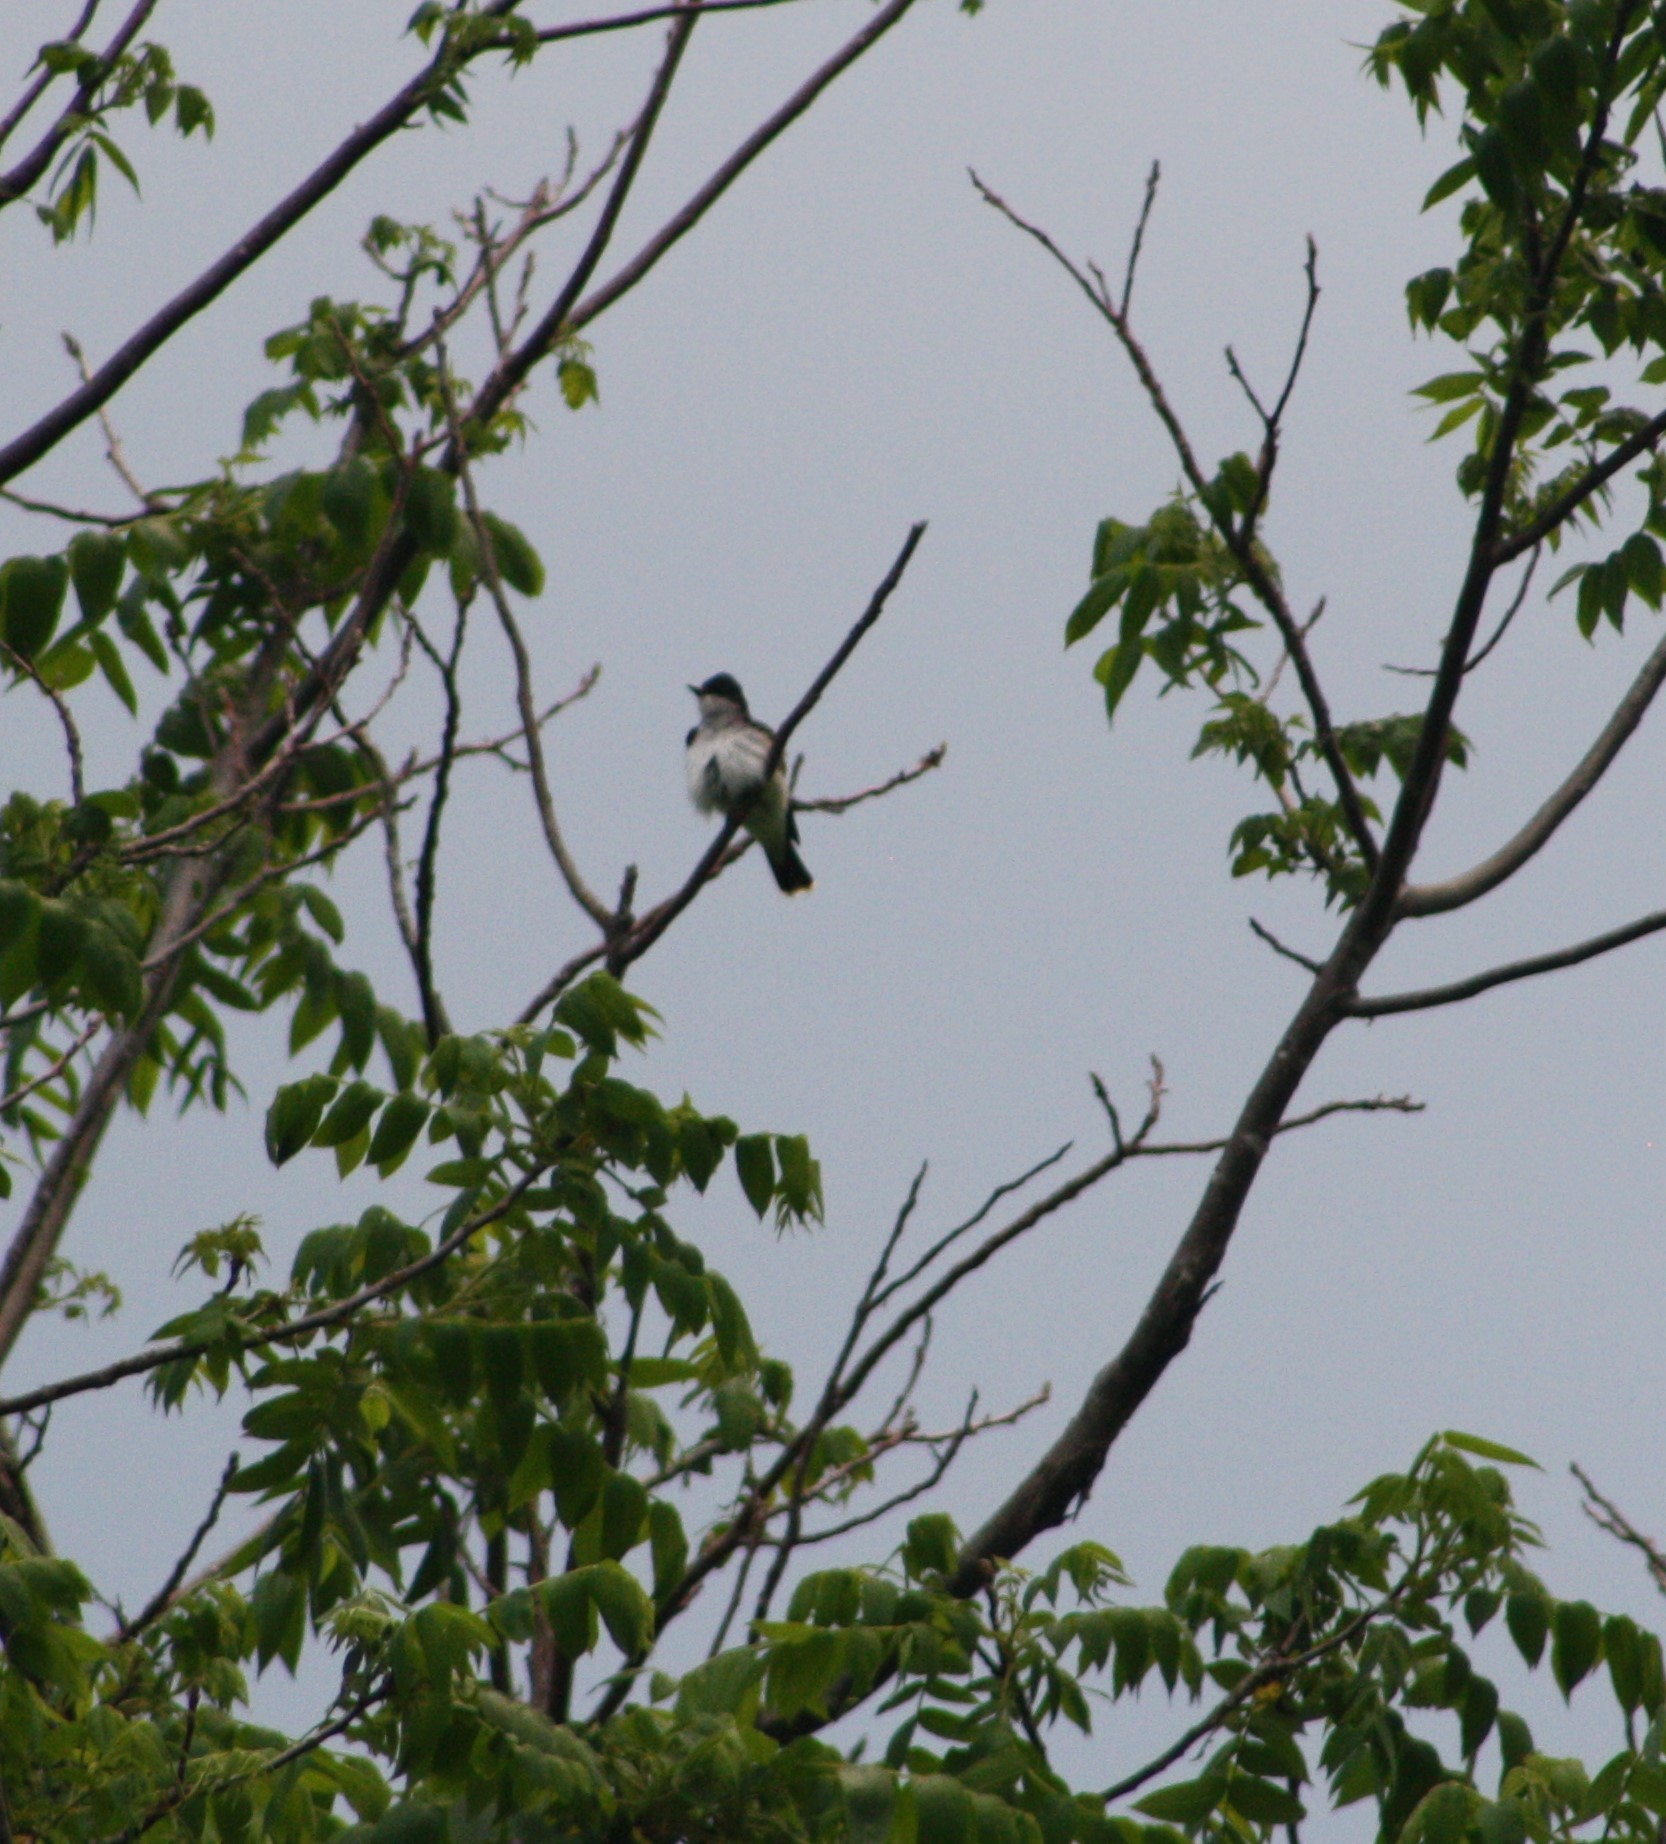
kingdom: Animalia
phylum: Chordata
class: Aves
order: Passeriformes
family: Tyrannidae
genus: Tyrannus
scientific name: Tyrannus tyrannus
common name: Eastern kingbird
